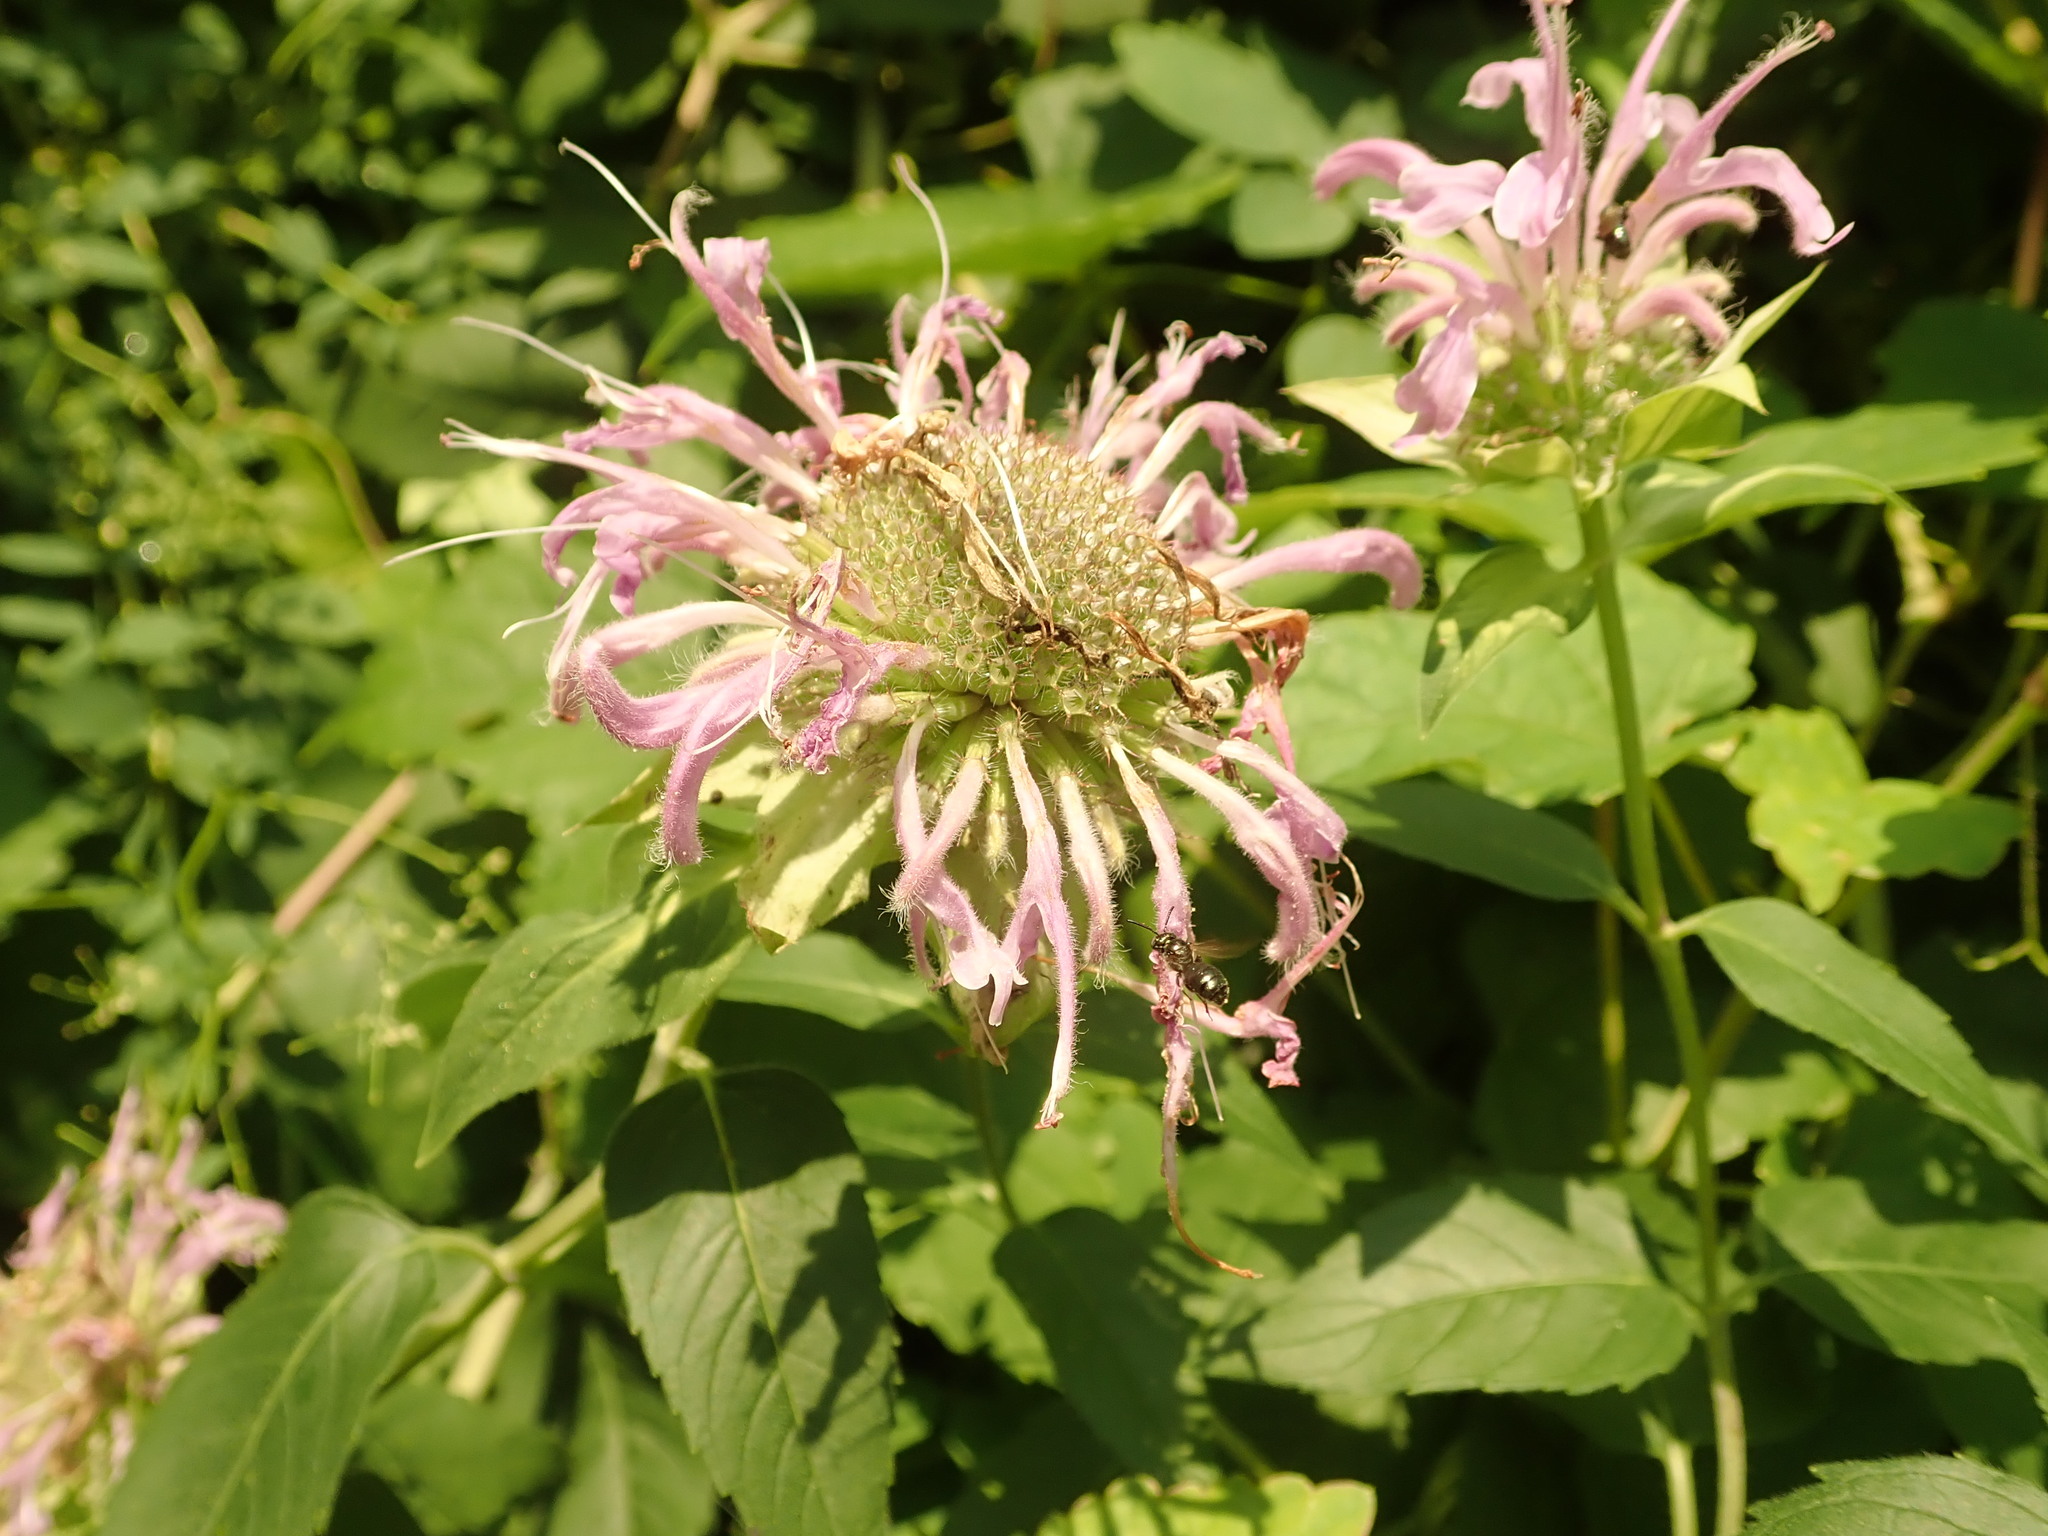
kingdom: Plantae
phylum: Tracheophyta
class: Magnoliopsida
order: Lamiales
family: Lamiaceae
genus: Monarda
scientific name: Monarda fistulosa
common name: Purple beebalm
